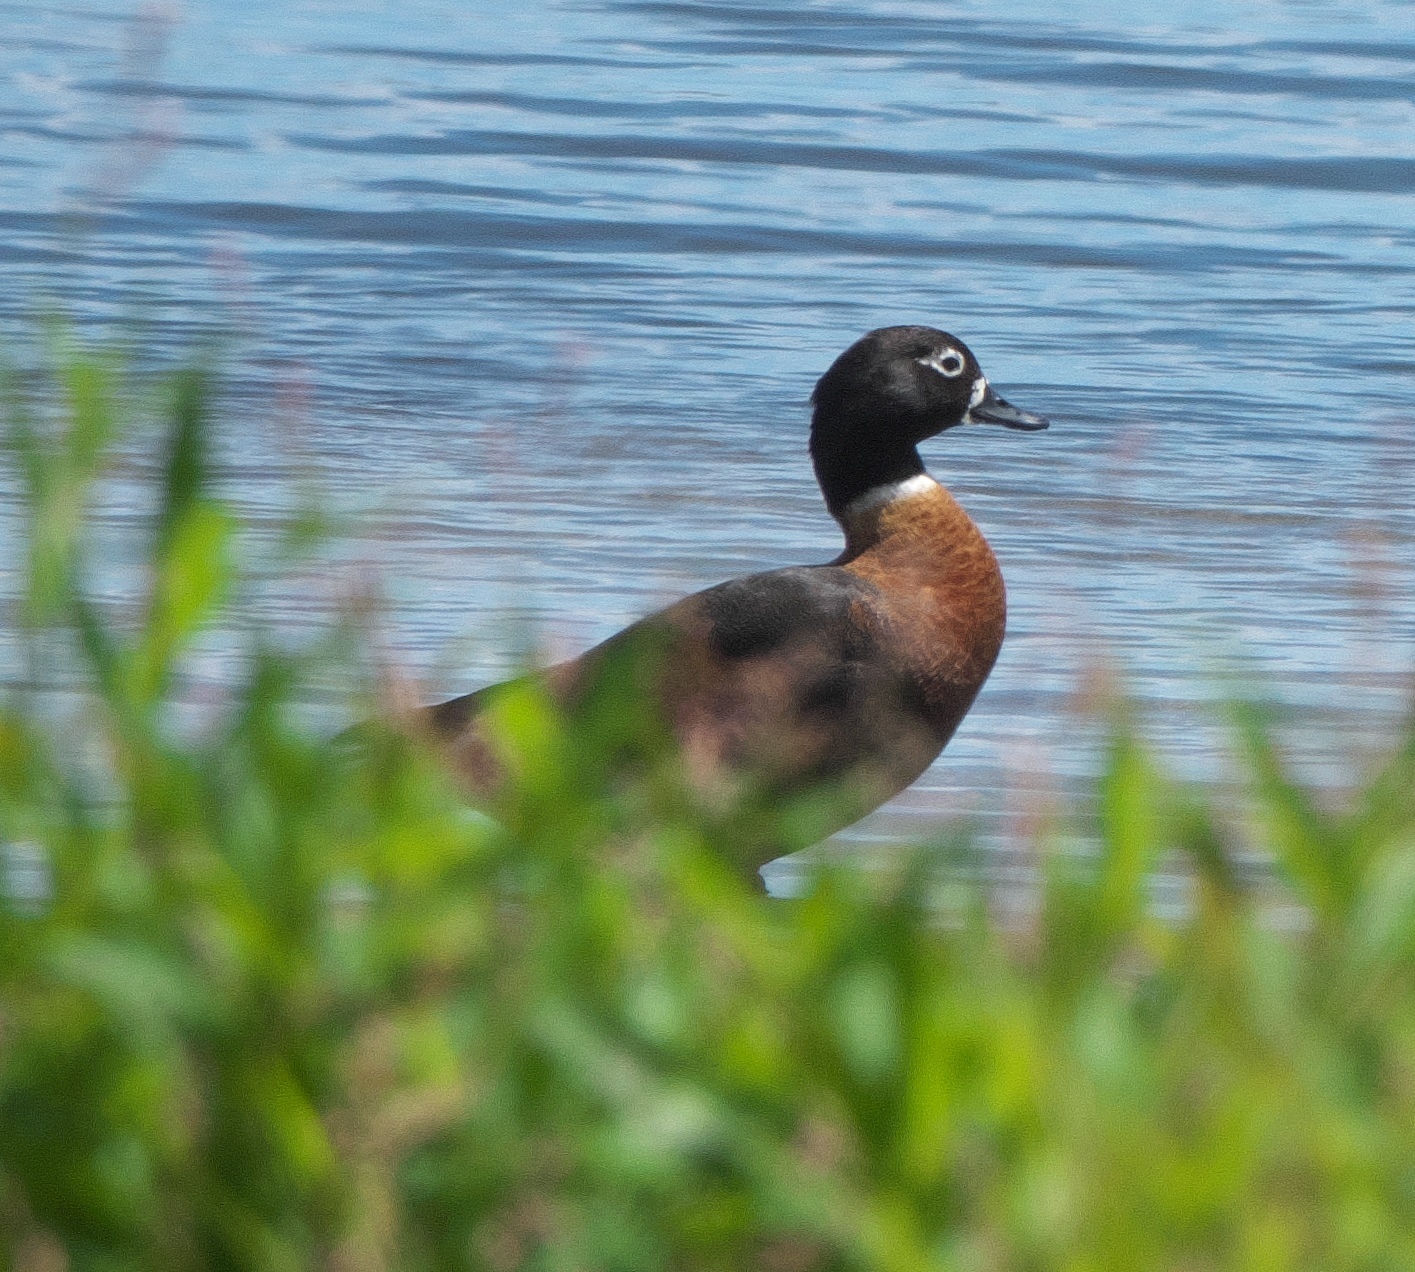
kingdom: Animalia
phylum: Chordata
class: Aves
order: Anseriformes
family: Anatidae
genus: Tadorna
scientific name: Tadorna tadornoides
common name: Australian shelduck
